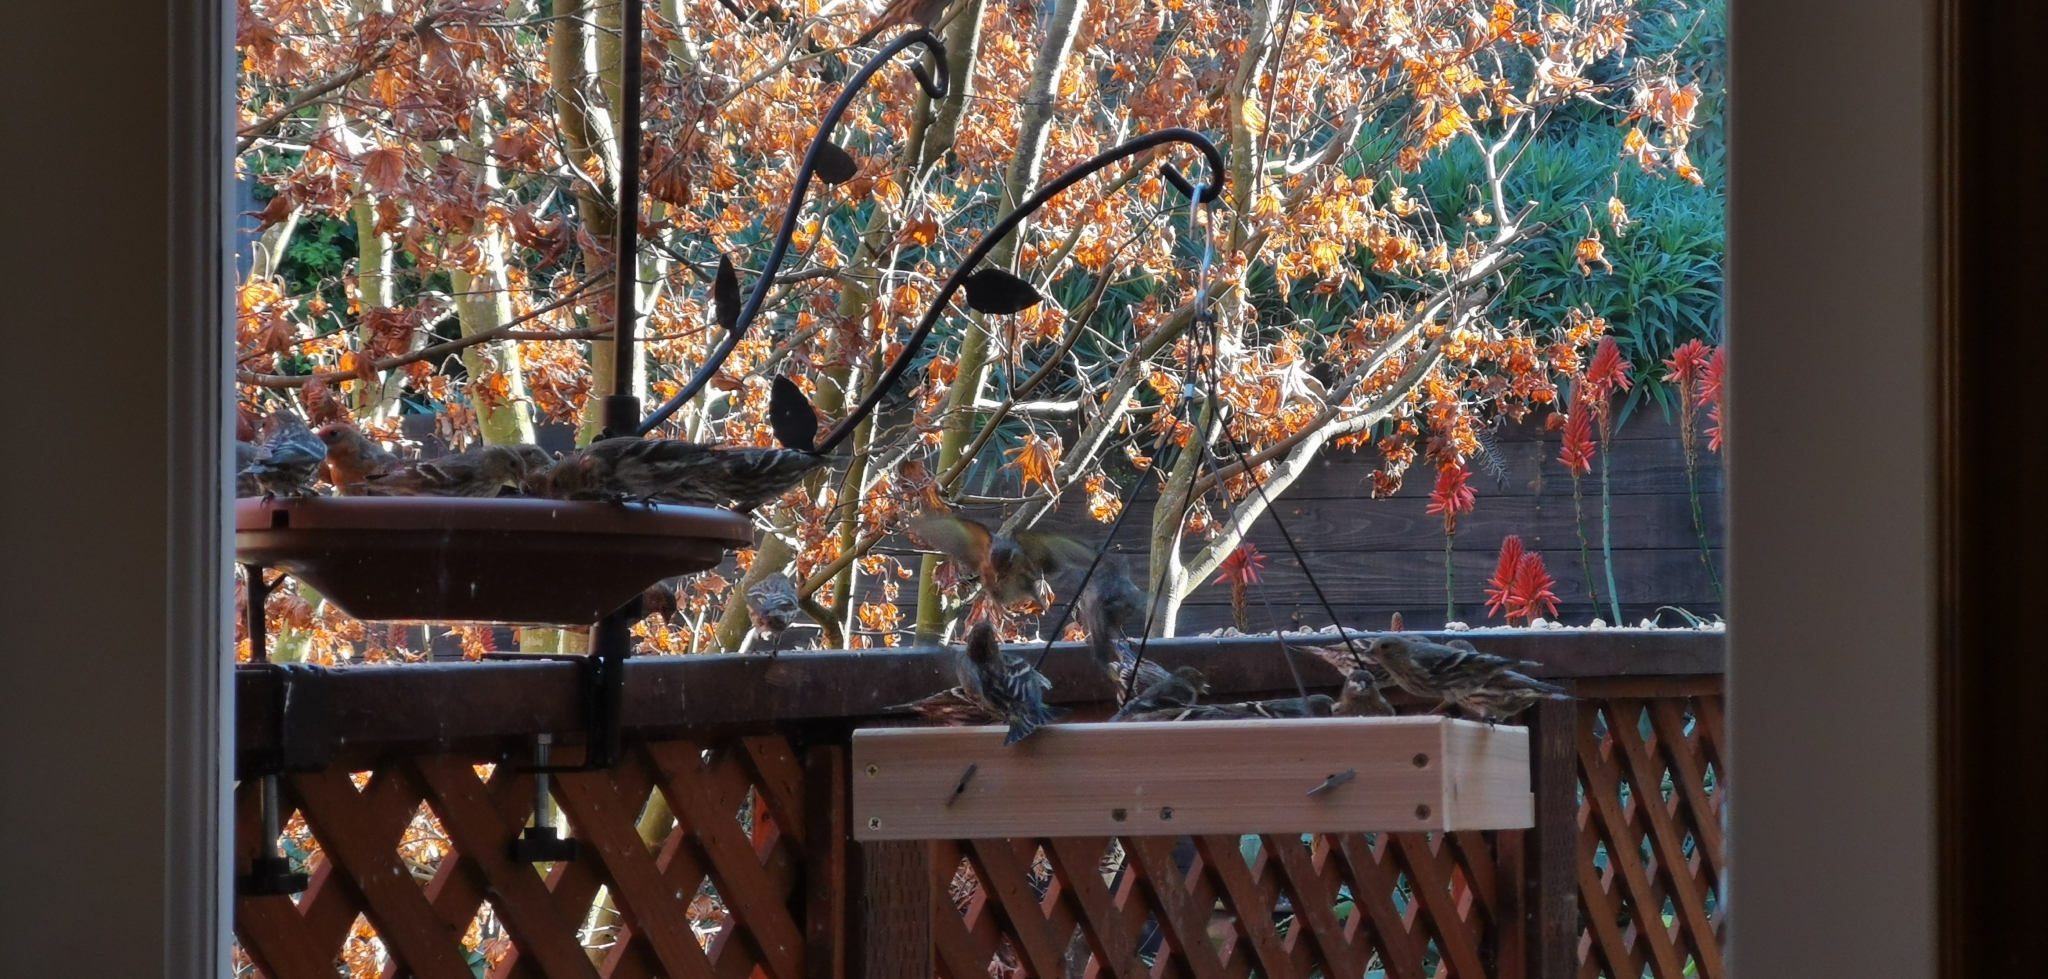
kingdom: Animalia
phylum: Chordata
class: Aves
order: Passeriformes
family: Fringillidae
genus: Spinus
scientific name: Spinus pinus
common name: Pine siskin
